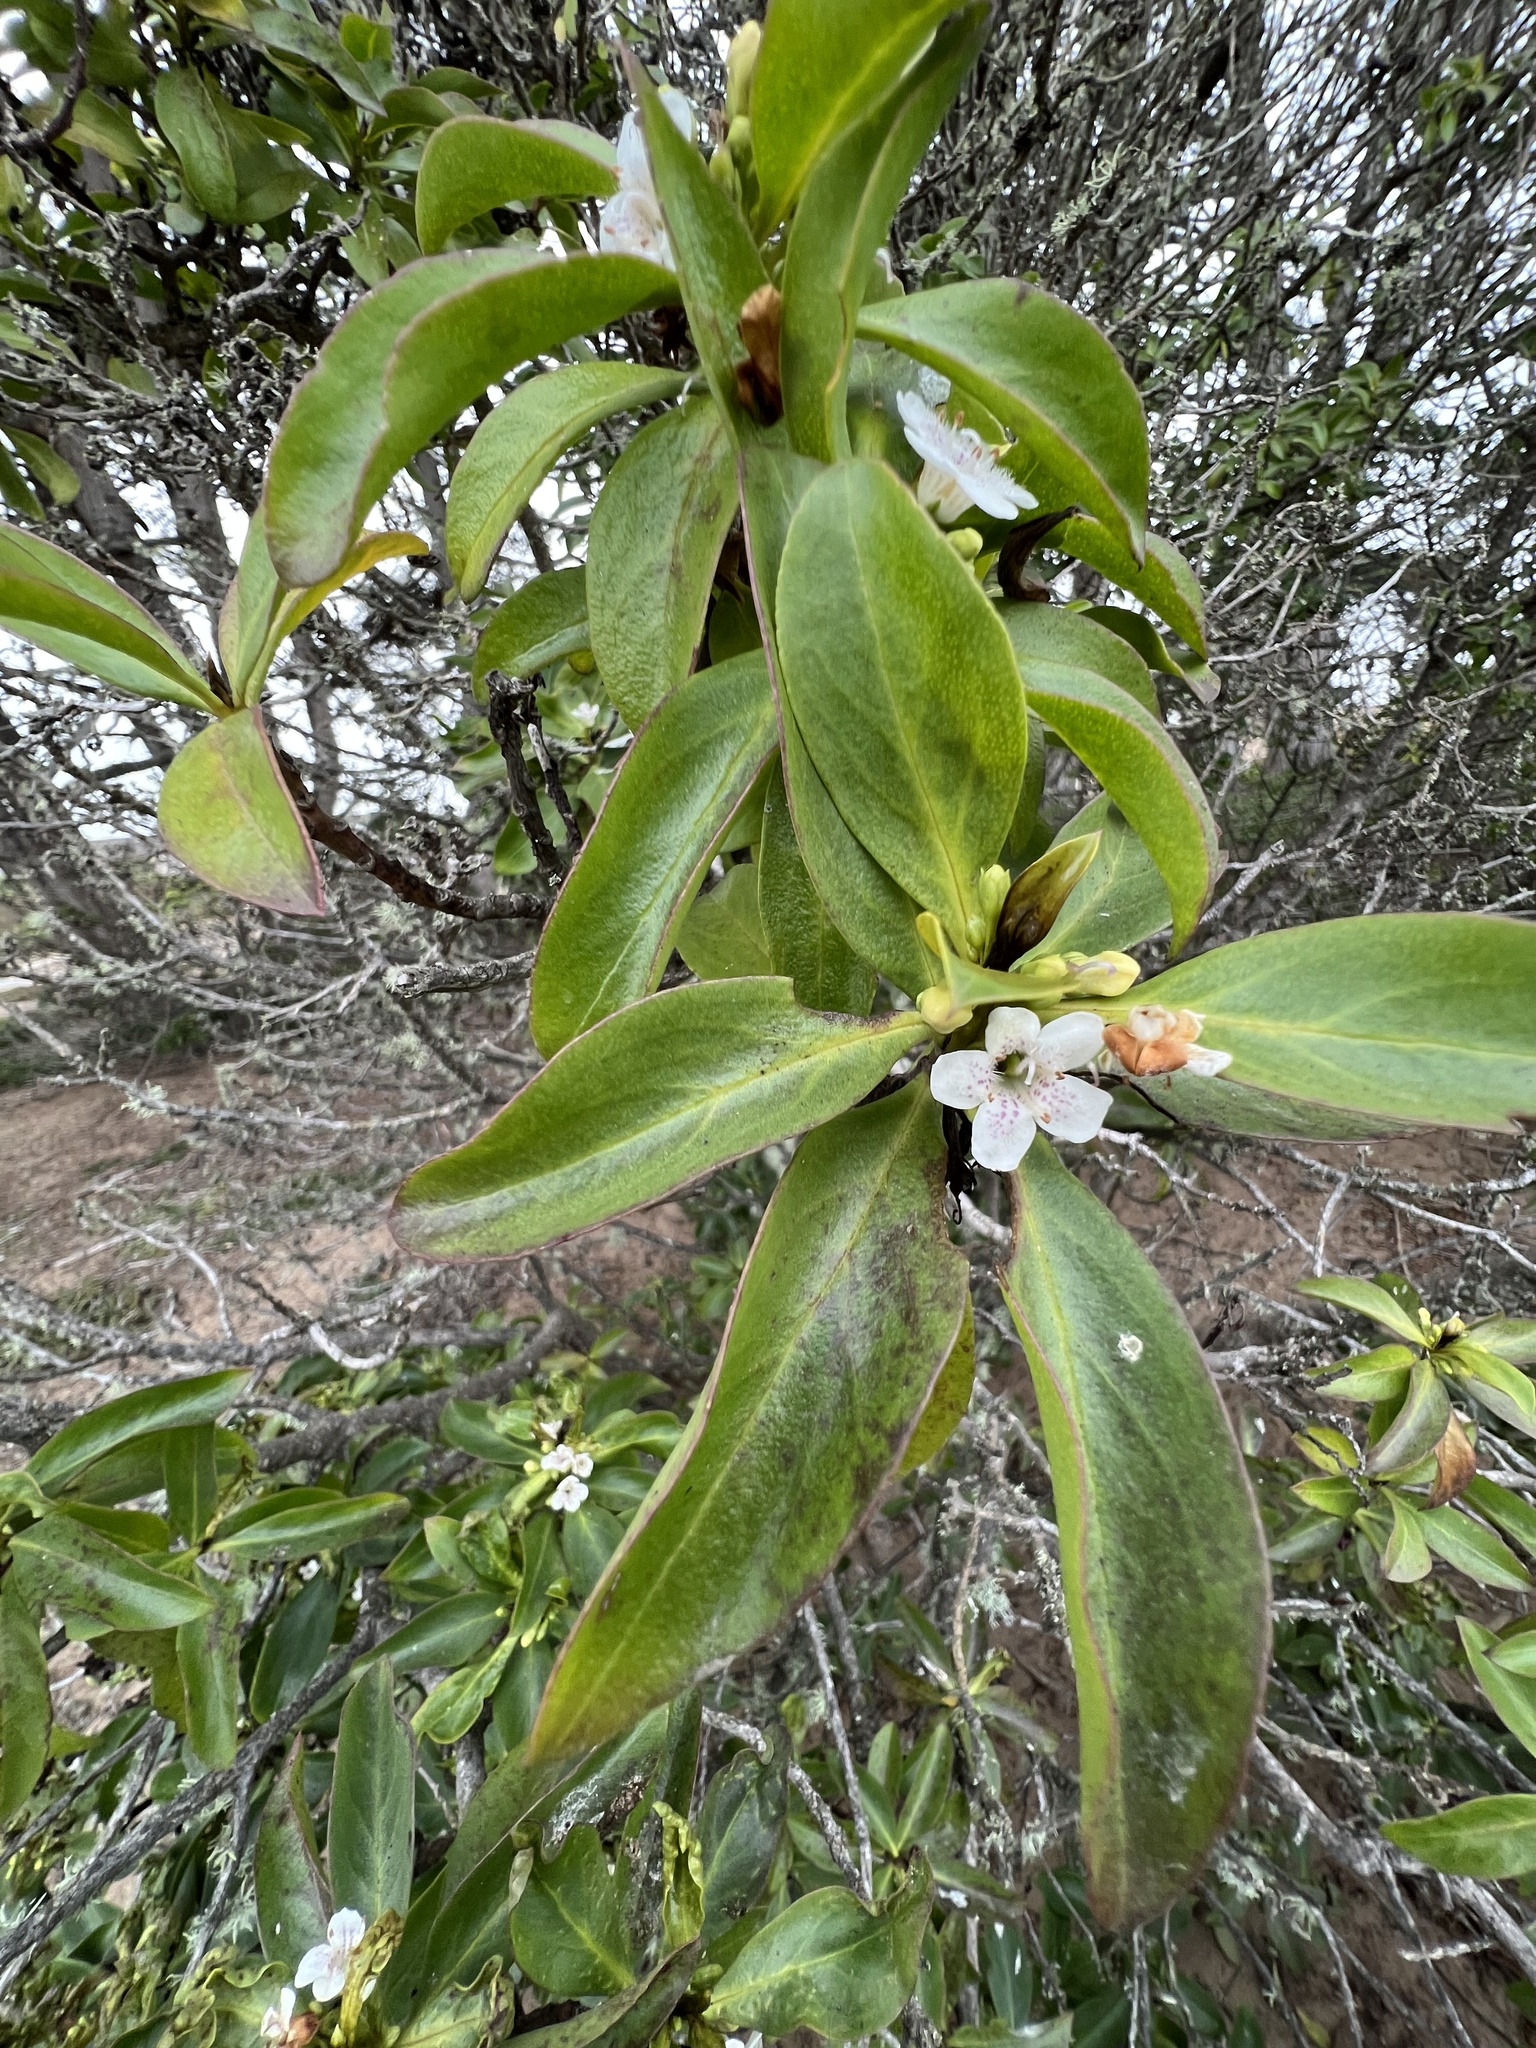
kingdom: Plantae
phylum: Tracheophyta
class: Magnoliopsida
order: Lamiales
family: Scrophulariaceae
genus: Myoporum
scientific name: Myoporum laetum
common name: Ngaio tree
